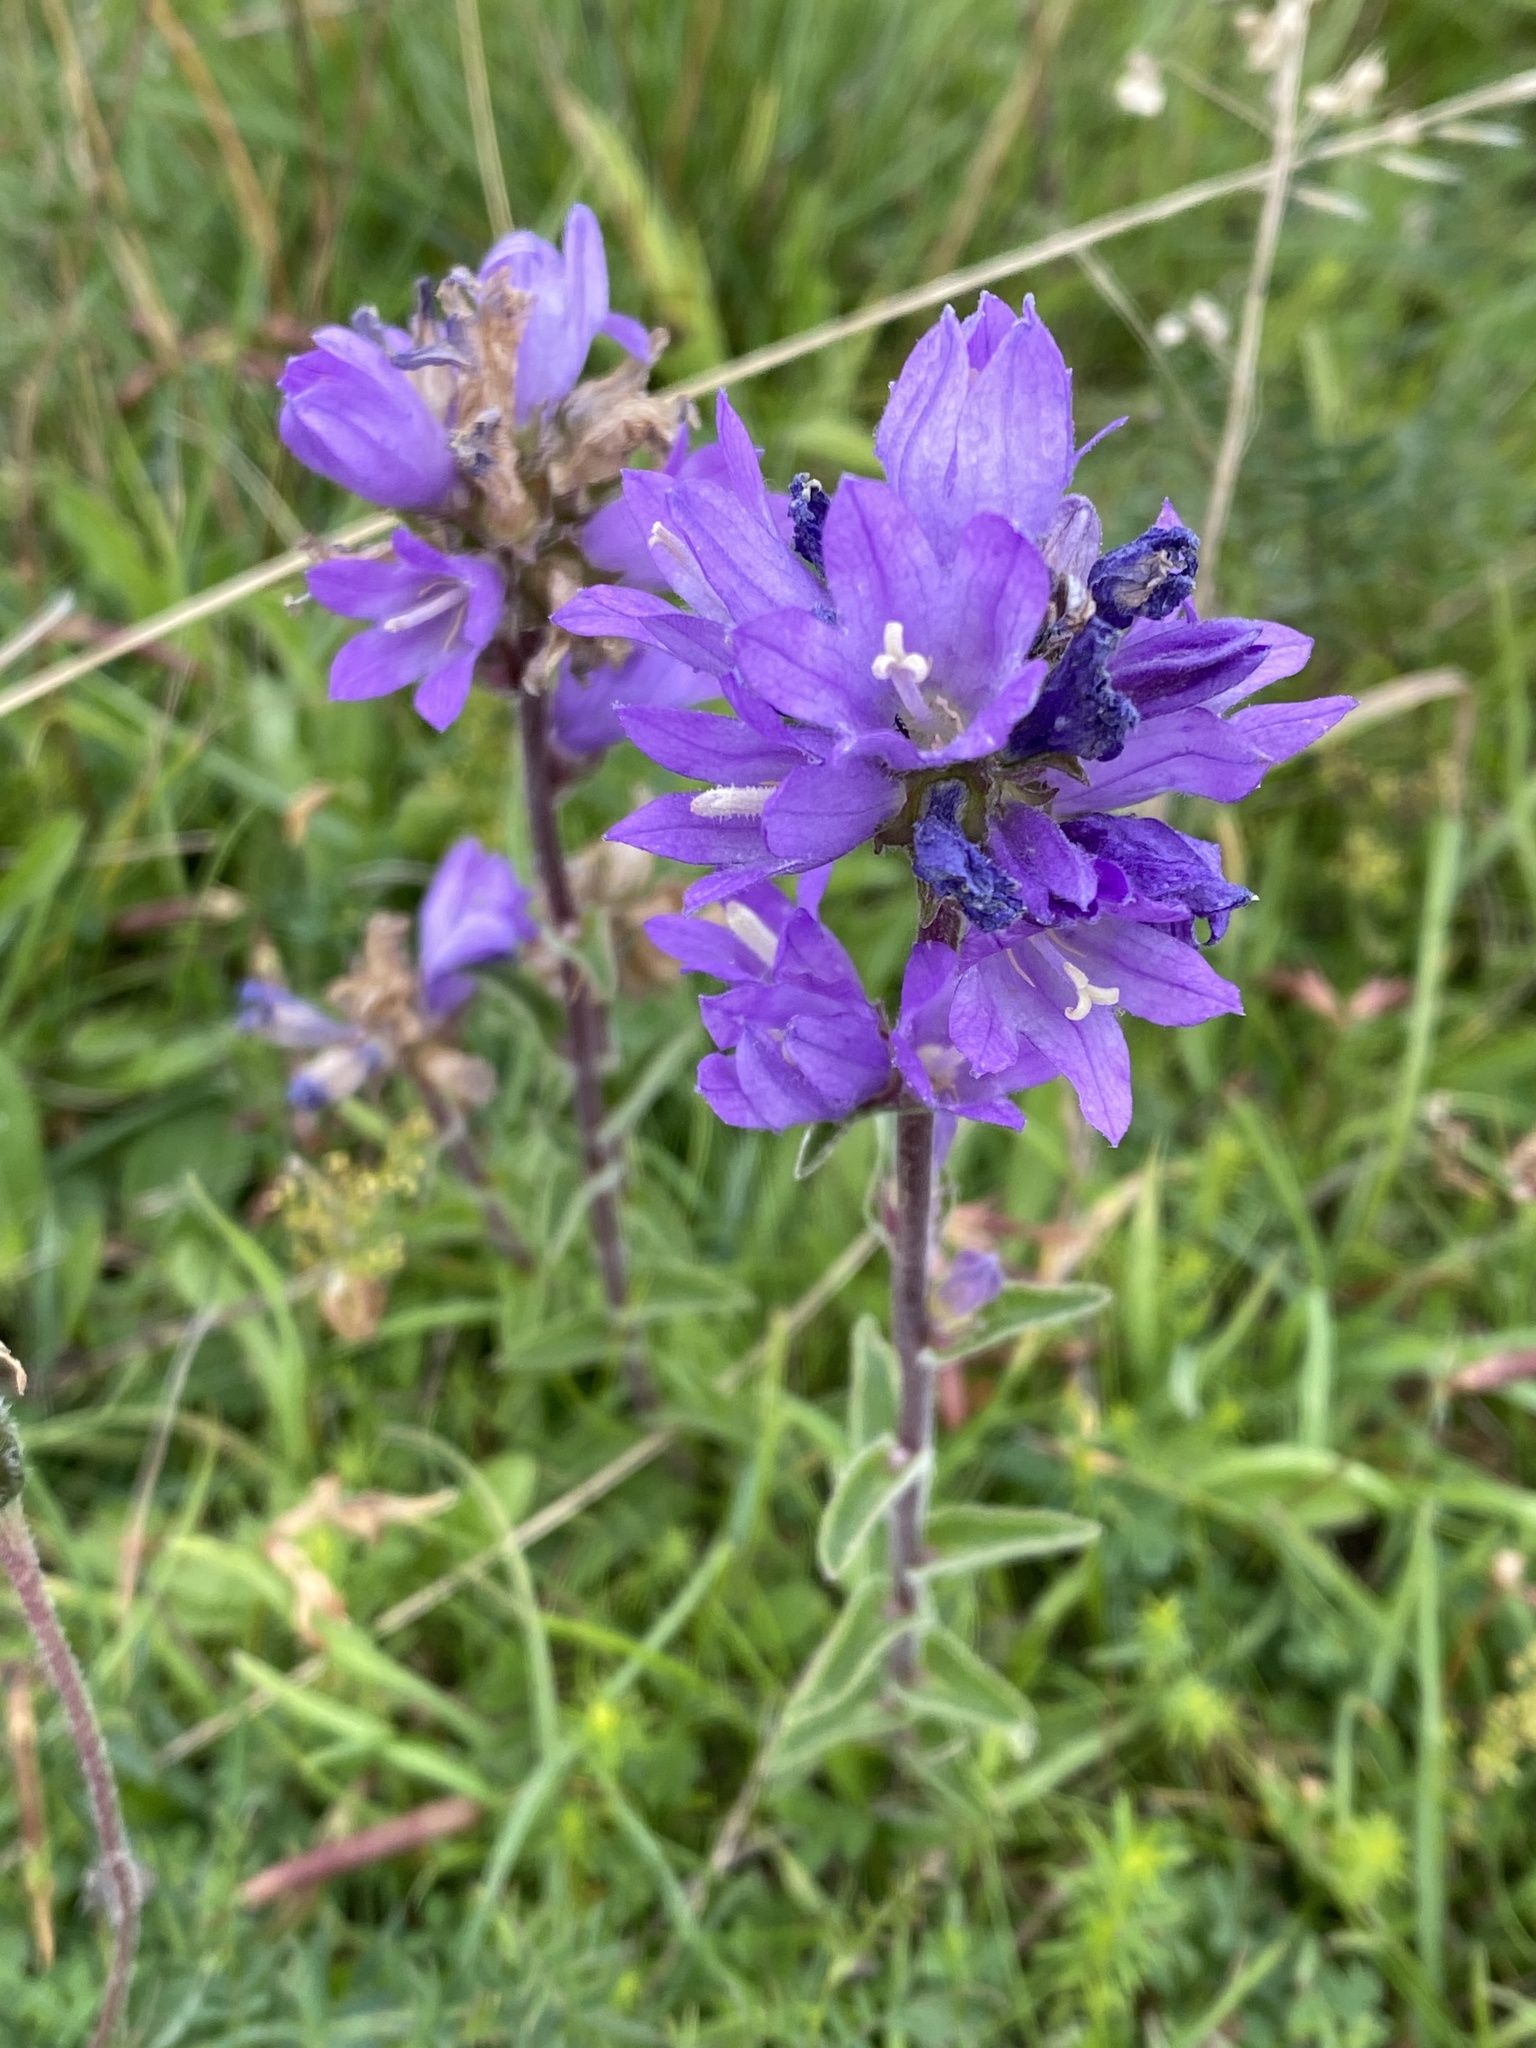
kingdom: Plantae
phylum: Tracheophyta
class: Magnoliopsida
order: Asterales
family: Campanulaceae
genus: Campanula
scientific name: Campanula glomerata
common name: Clustered bellflower
